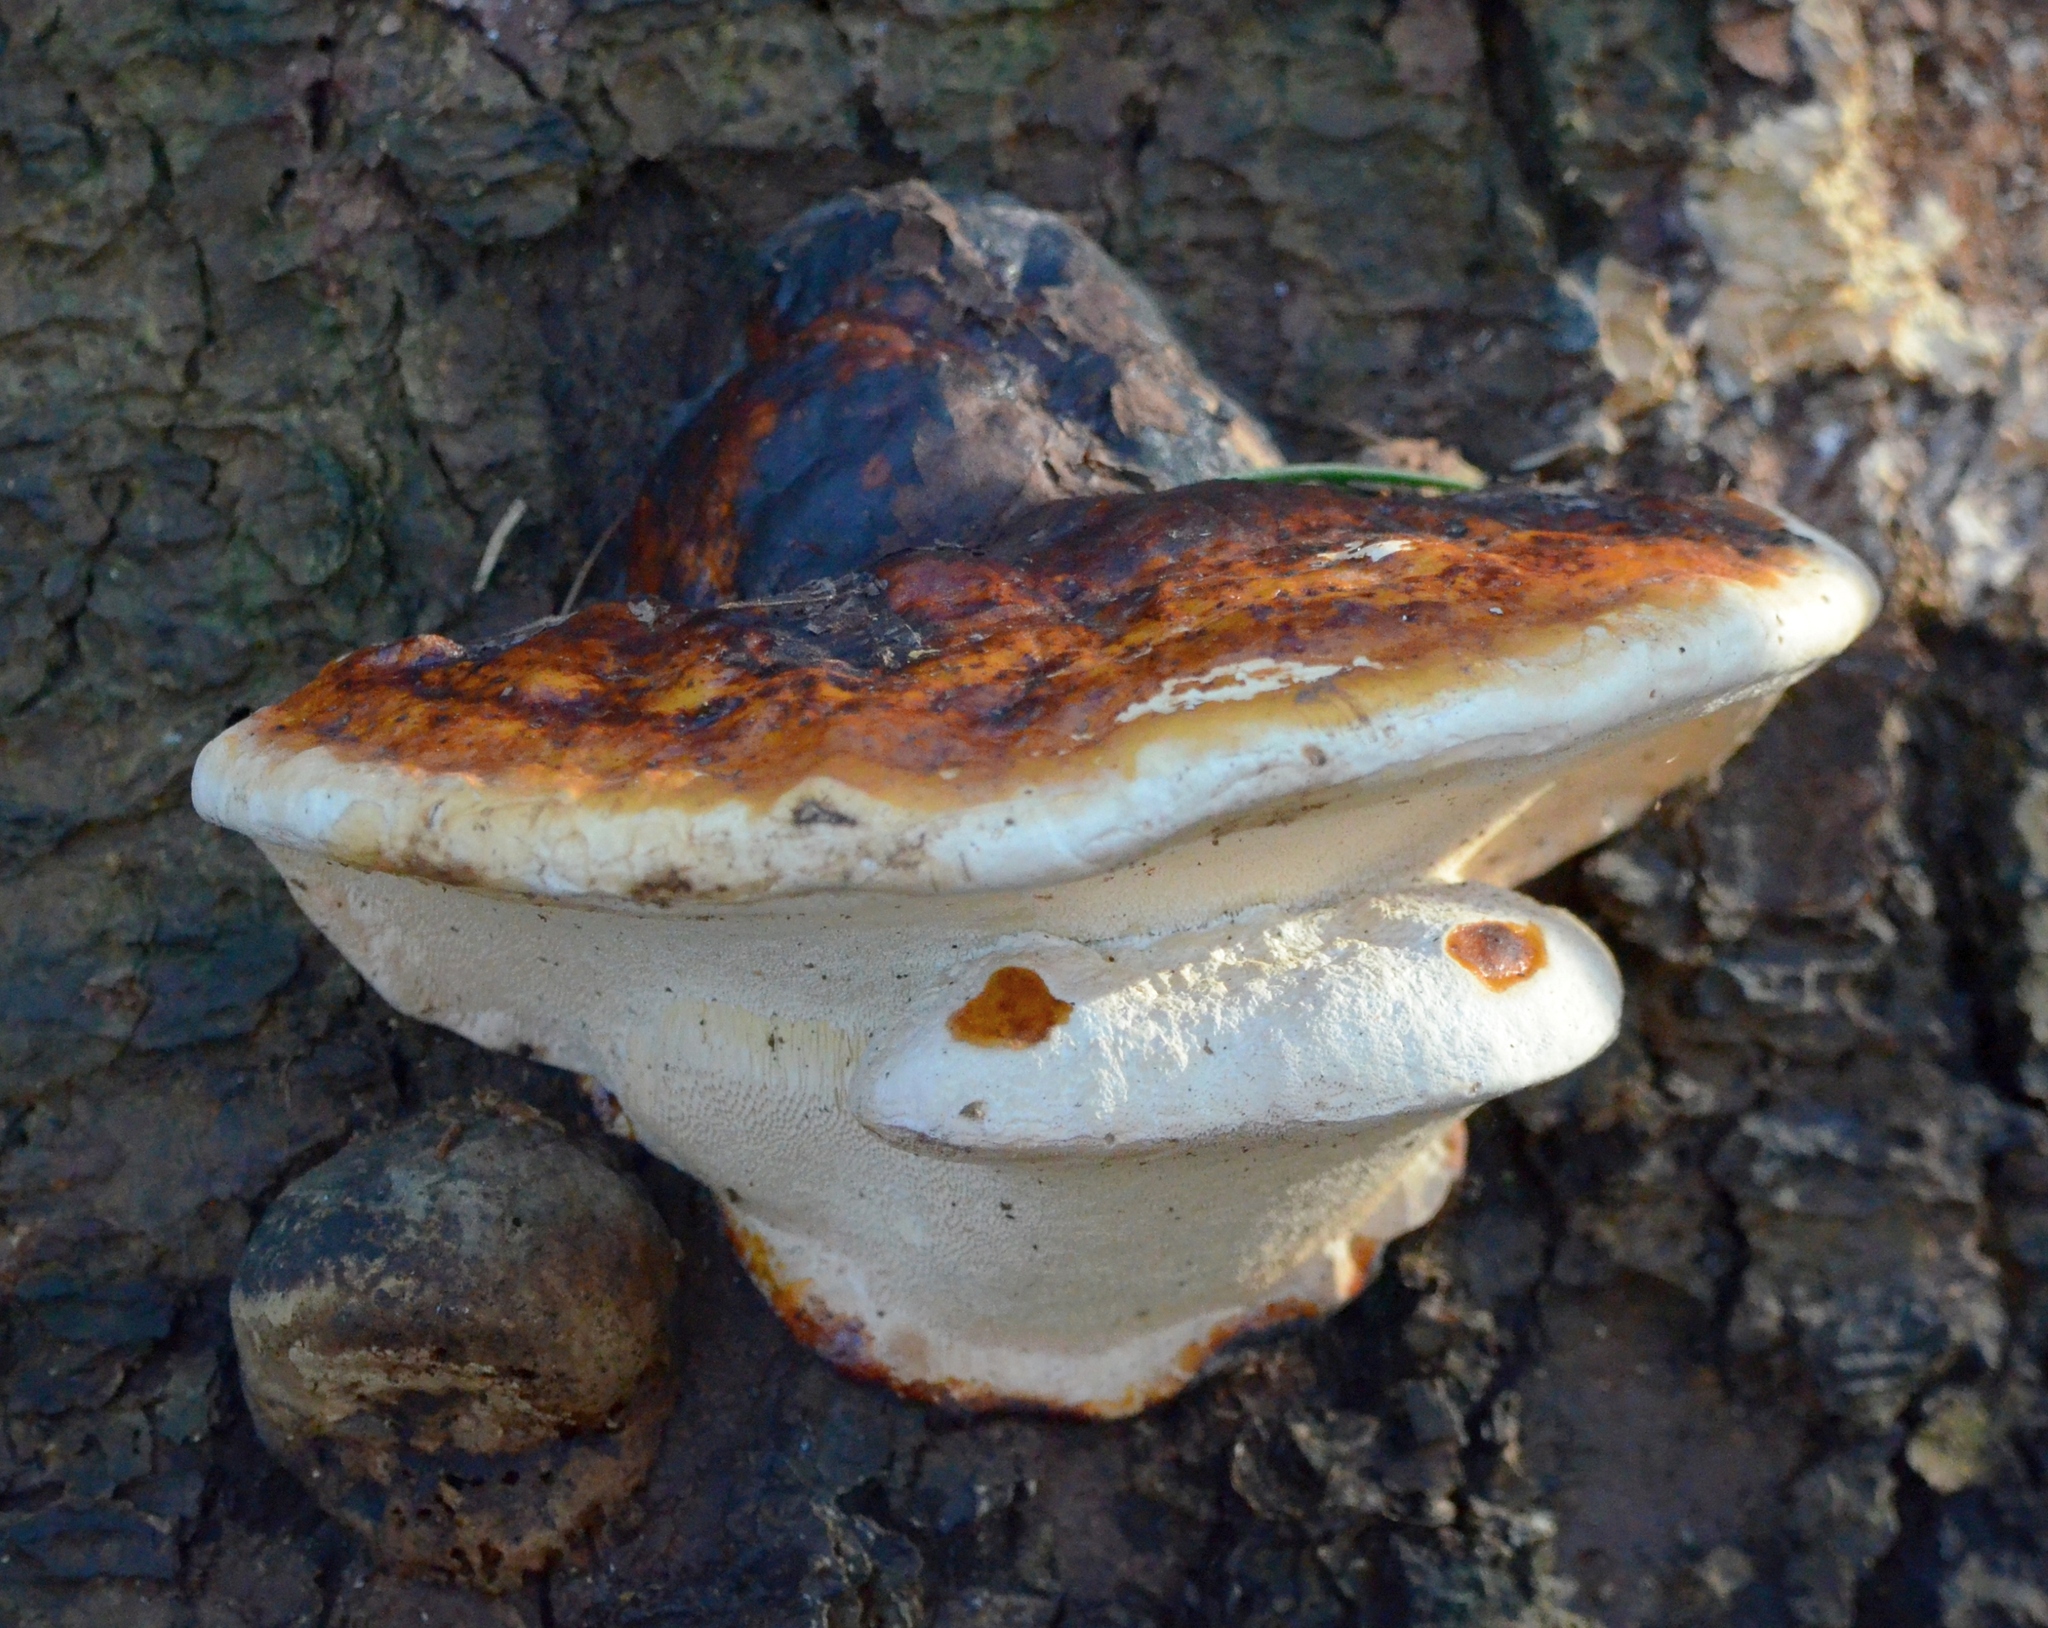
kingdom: Fungi
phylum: Basidiomycota
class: Agaricomycetes
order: Polyporales
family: Fomitopsidaceae
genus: Fomitopsis
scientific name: Fomitopsis pinicola
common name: Red-belted bracket
